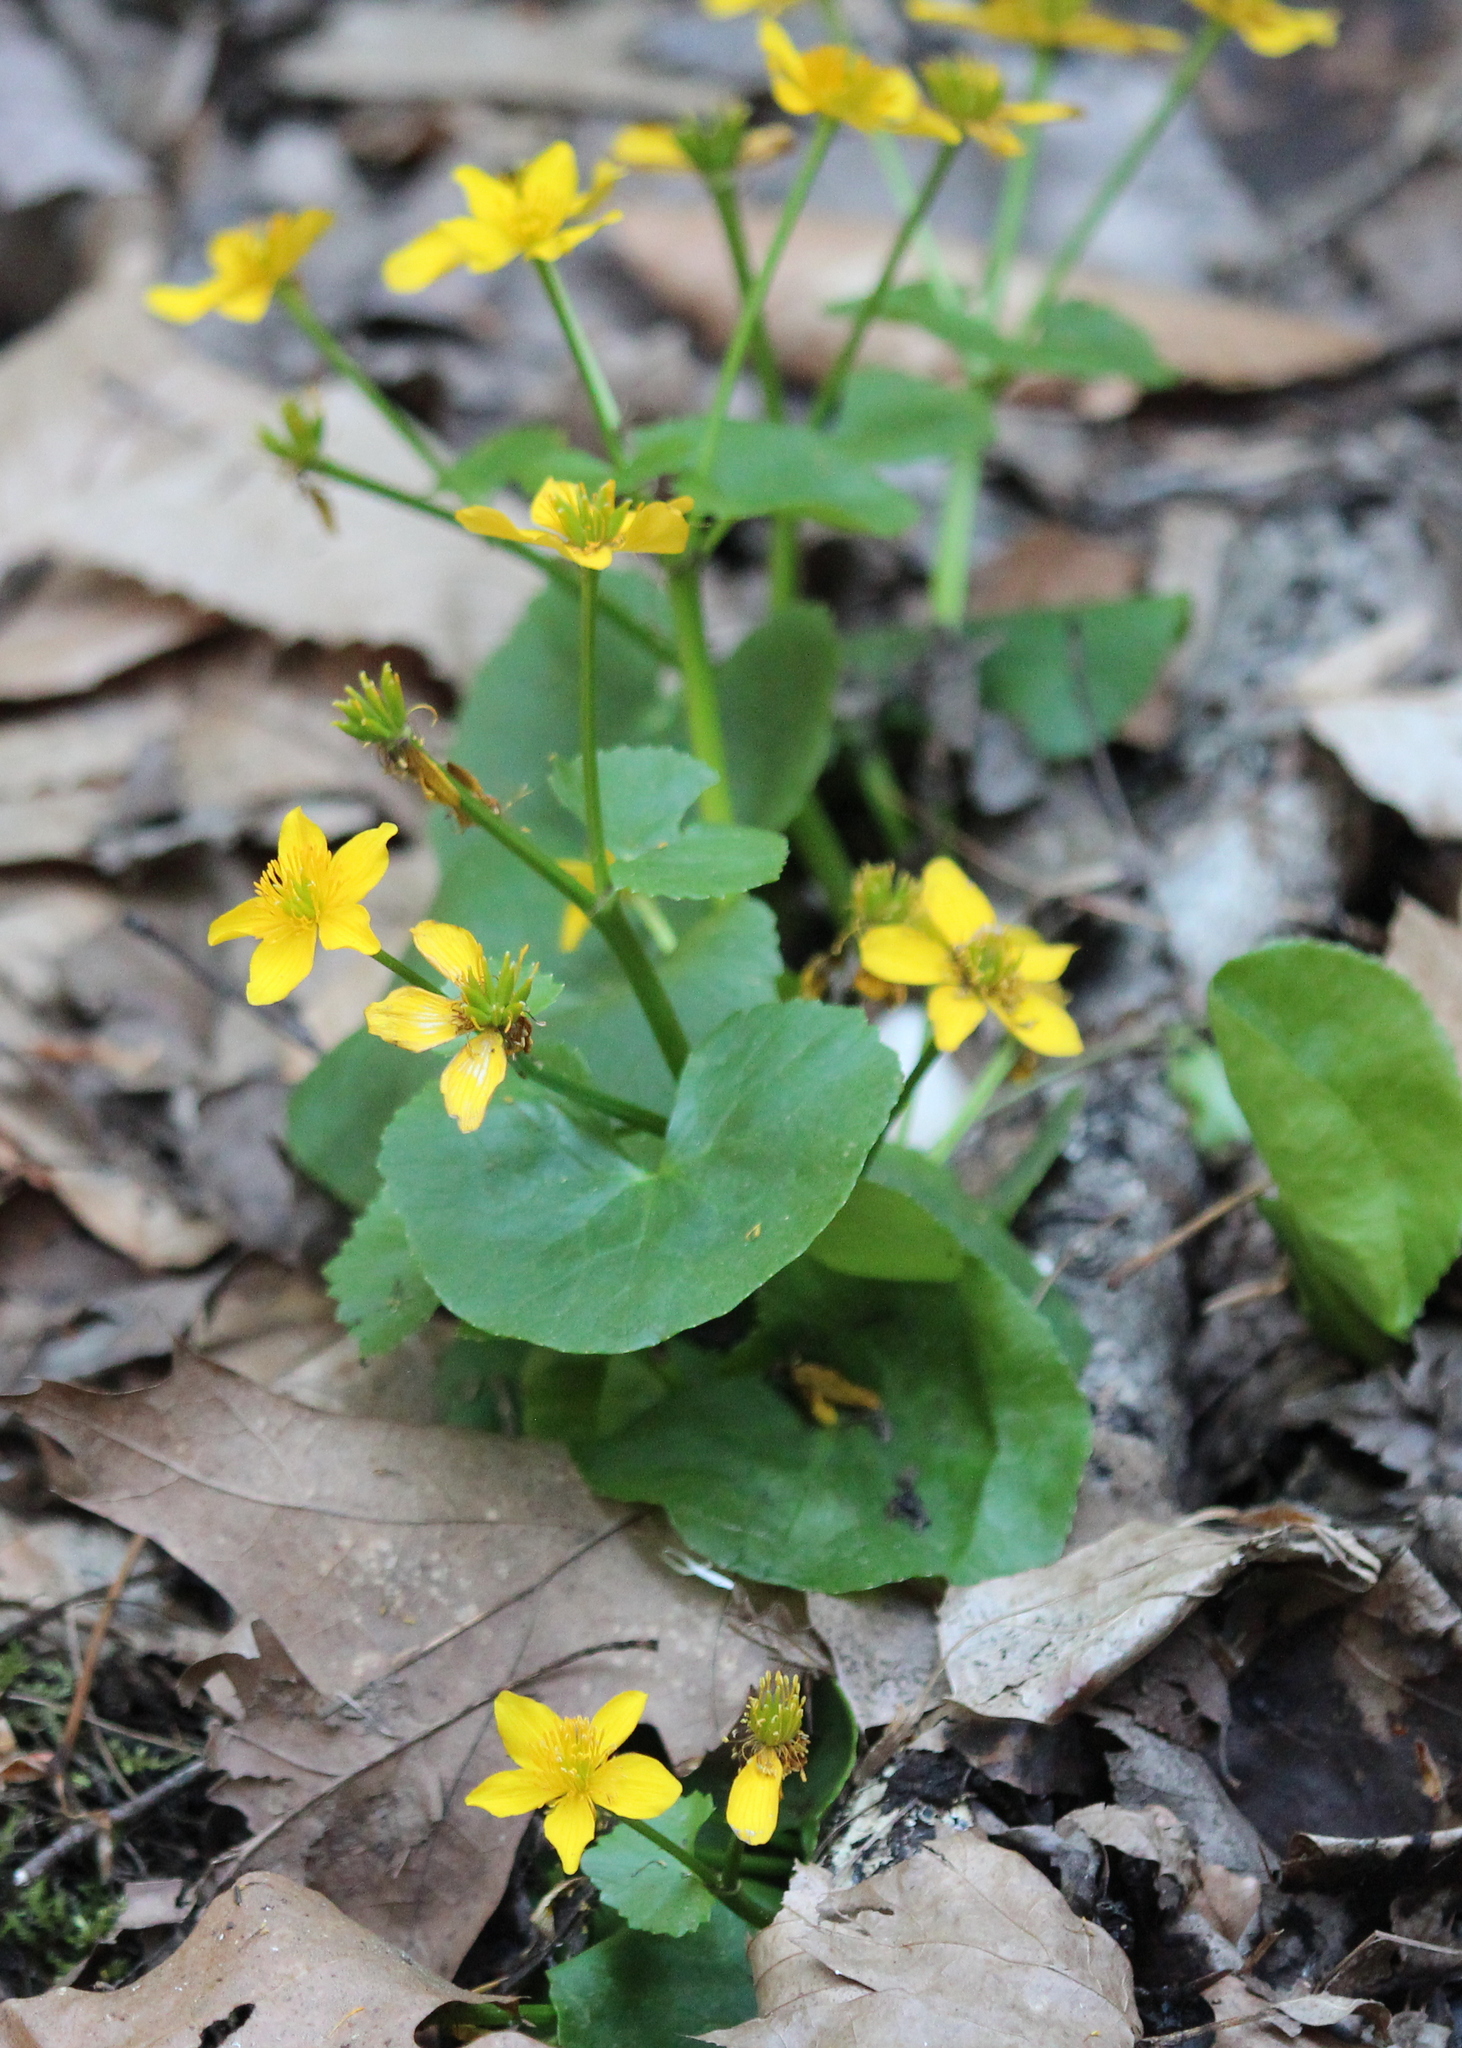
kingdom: Plantae
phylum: Tracheophyta
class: Magnoliopsida
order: Ranunculales
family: Ranunculaceae
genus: Caltha
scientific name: Caltha palustris
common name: Marsh marigold
